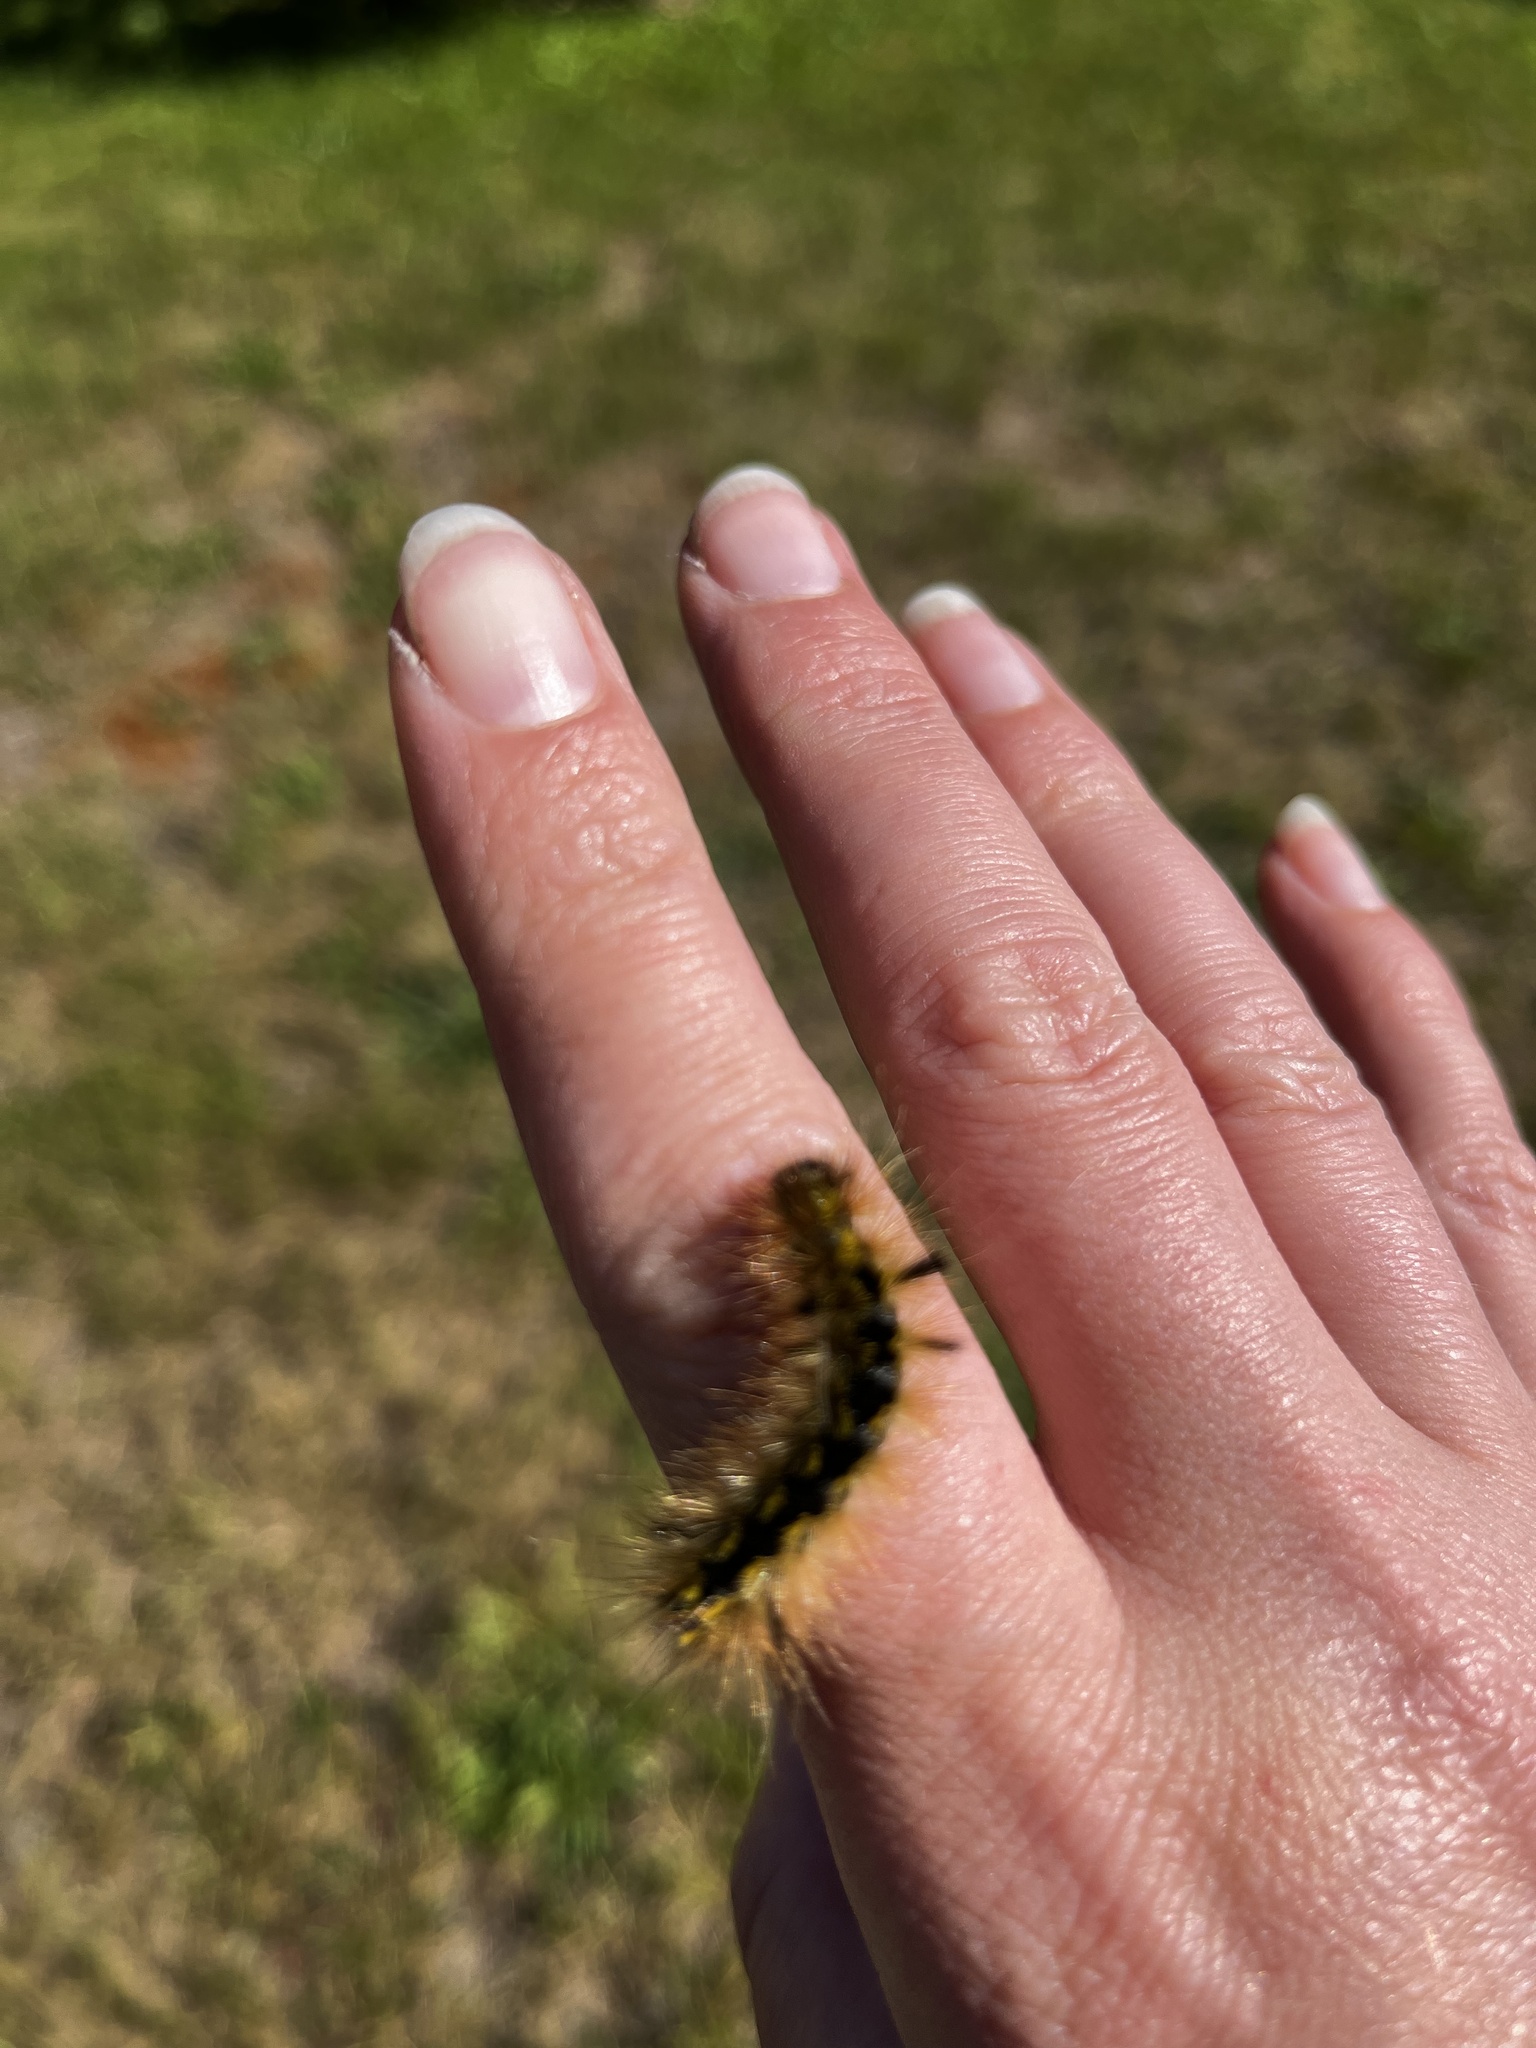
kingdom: Animalia
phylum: Arthropoda
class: Insecta
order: Lepidoptera
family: Erebidae
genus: Lophocampa
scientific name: Lophocampa argentata
